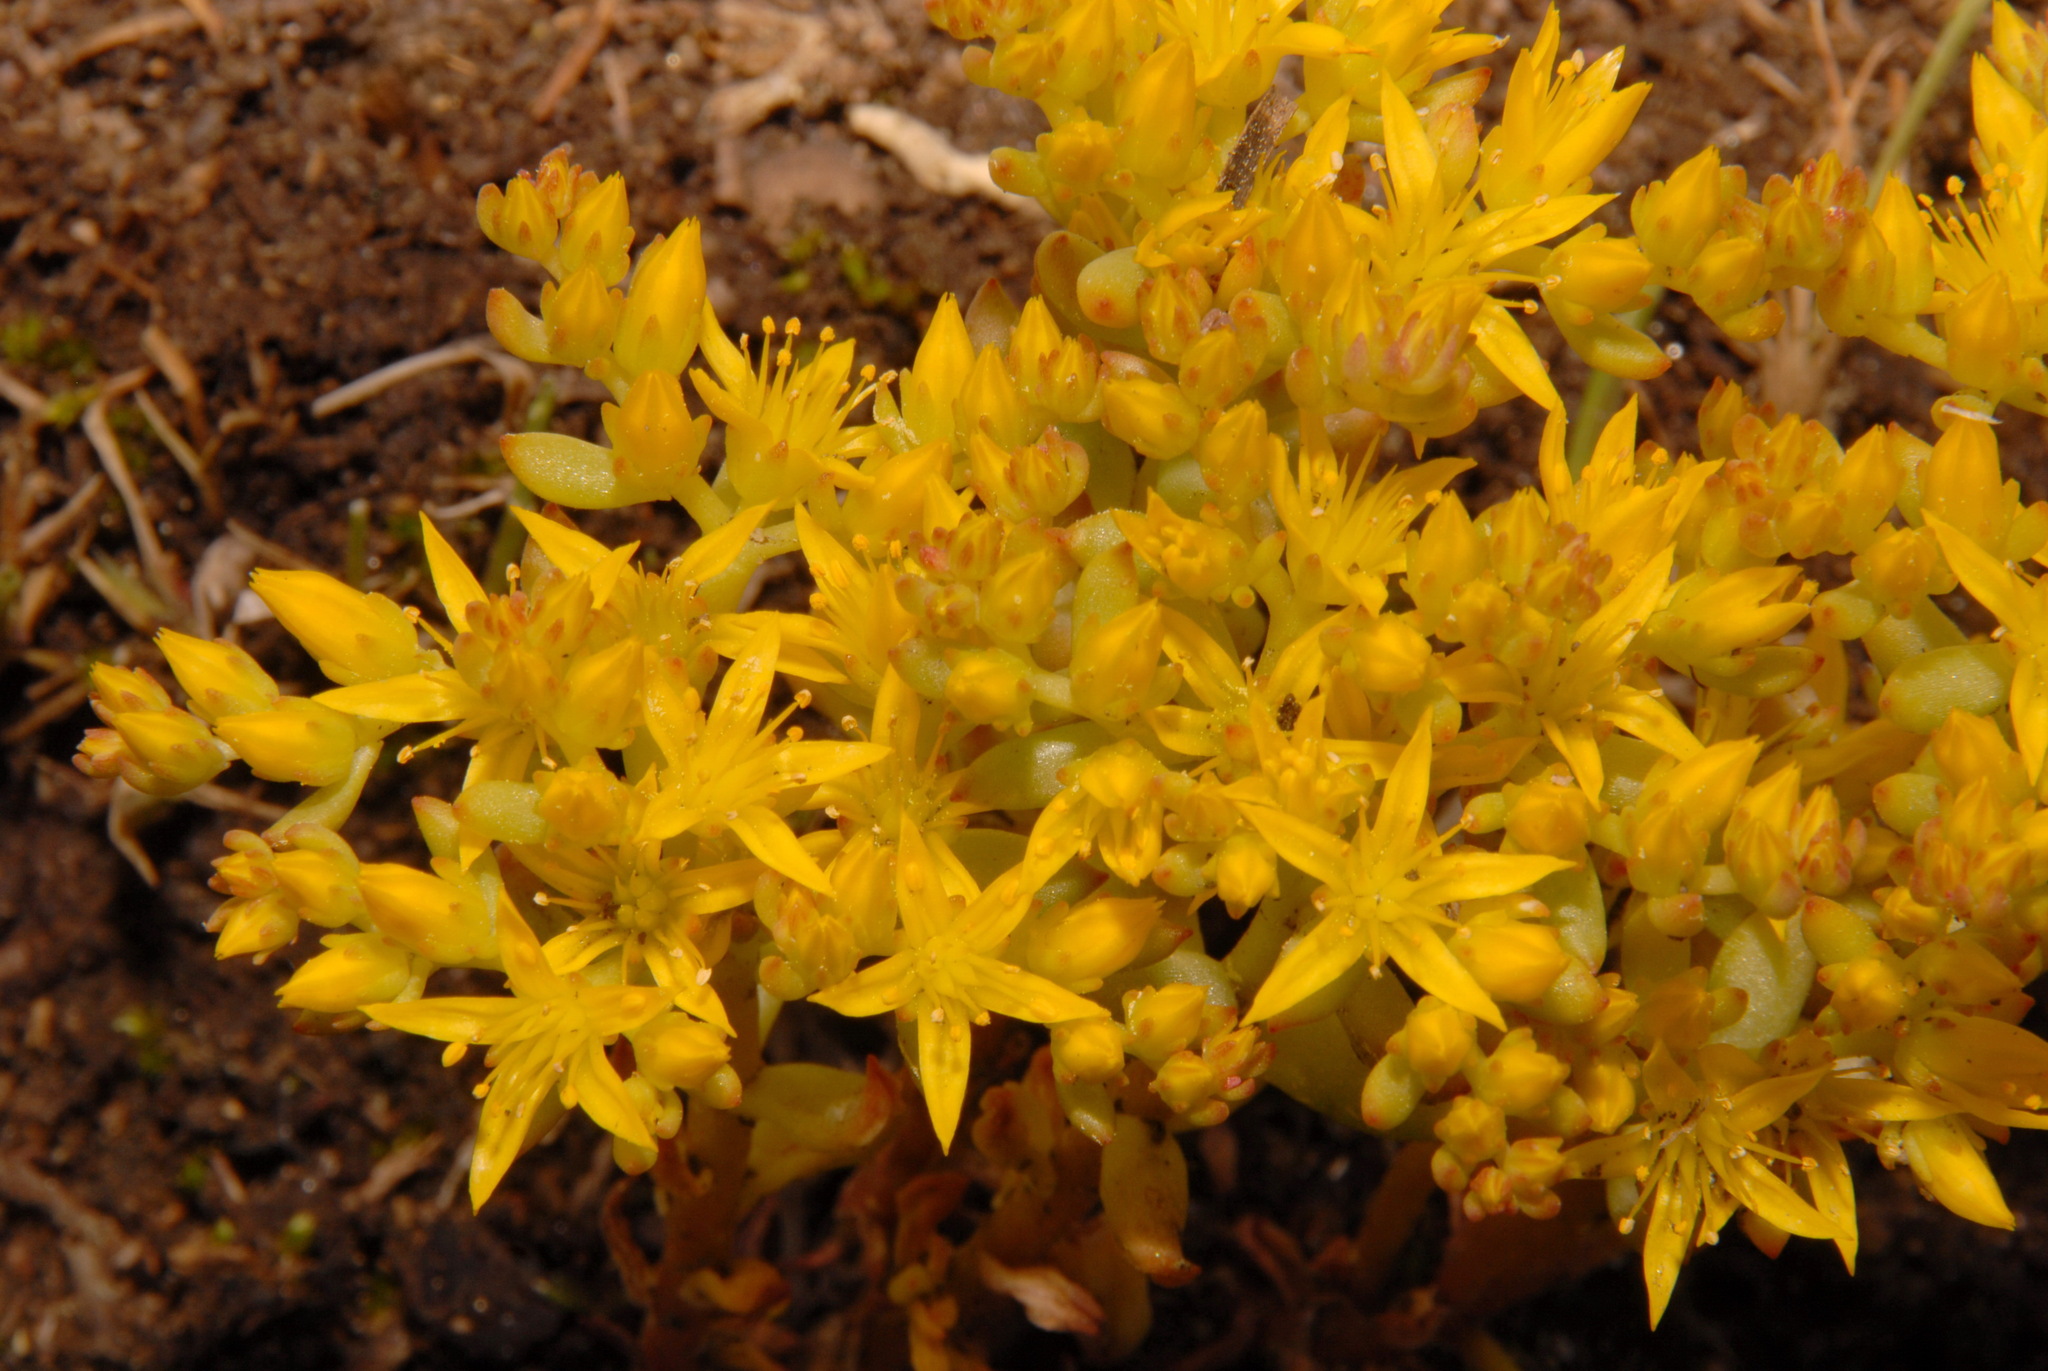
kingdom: Plantae
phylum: Tracheophyta
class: Magnoliopsida
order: Saxifragales
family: Crassulaceae
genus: Sedum
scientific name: Sedum lanceolatum
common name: Common stonecrop
